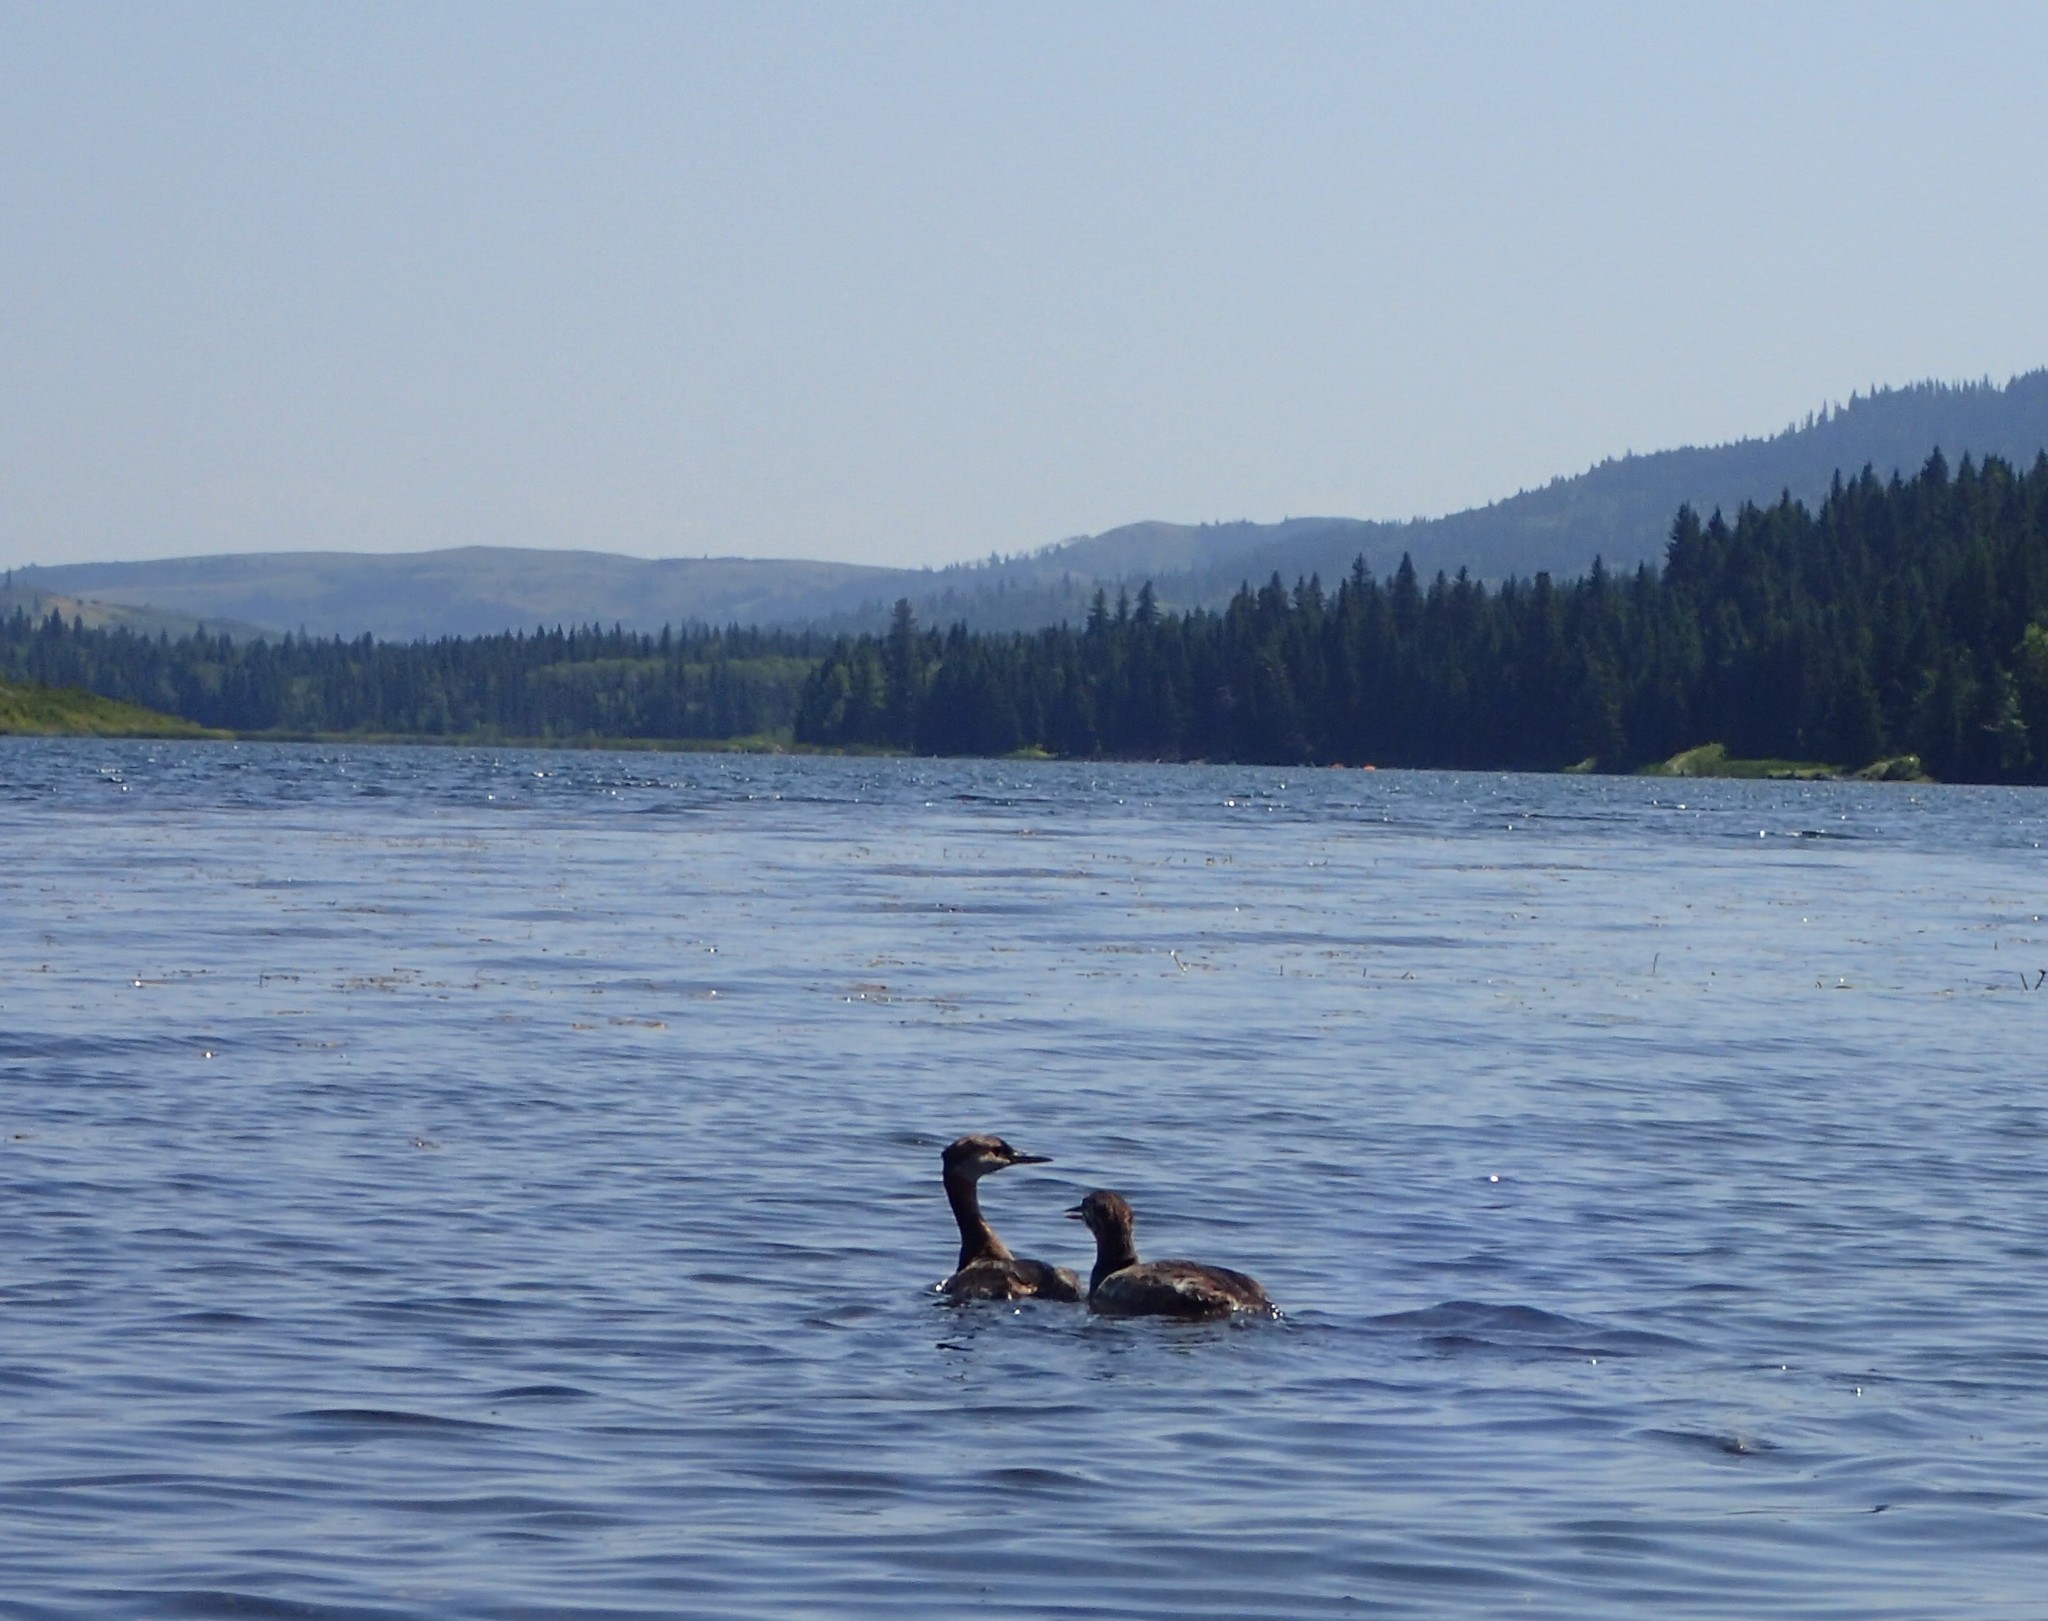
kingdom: Animalia
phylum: Chordata
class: Aves
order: Podicipediformes
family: Podicipedidae
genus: Podiceps
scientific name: Podiceps grisegena
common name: Red-necked grebe
